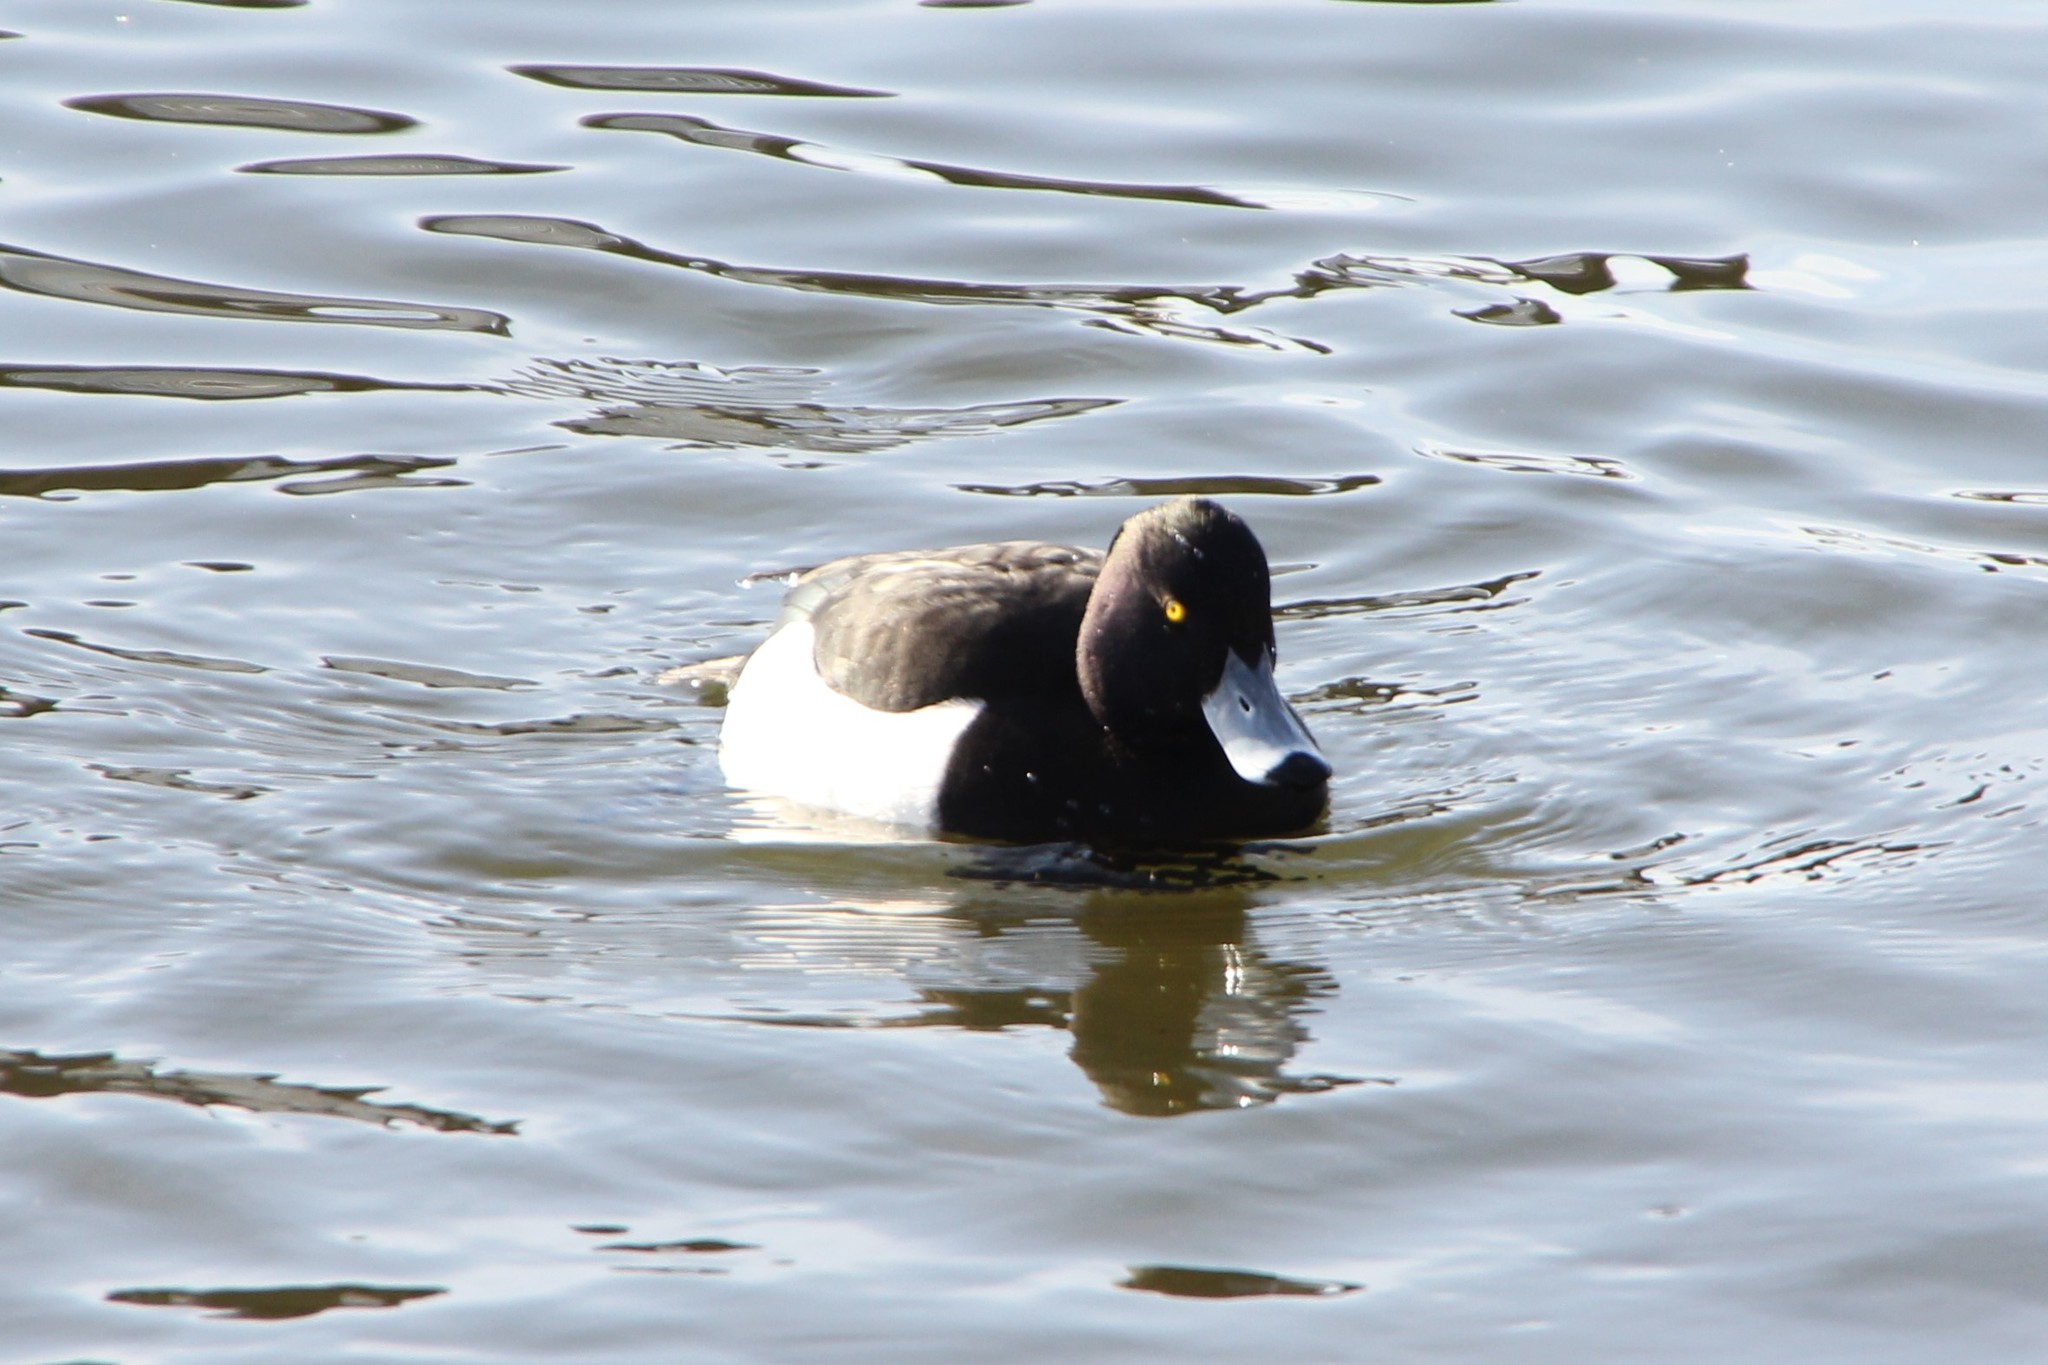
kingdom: Animalia
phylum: Chordata
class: Aves
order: Anseriformes
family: Anatidae
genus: Aythya
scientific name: Aythya fuligula
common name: Tufted duck
